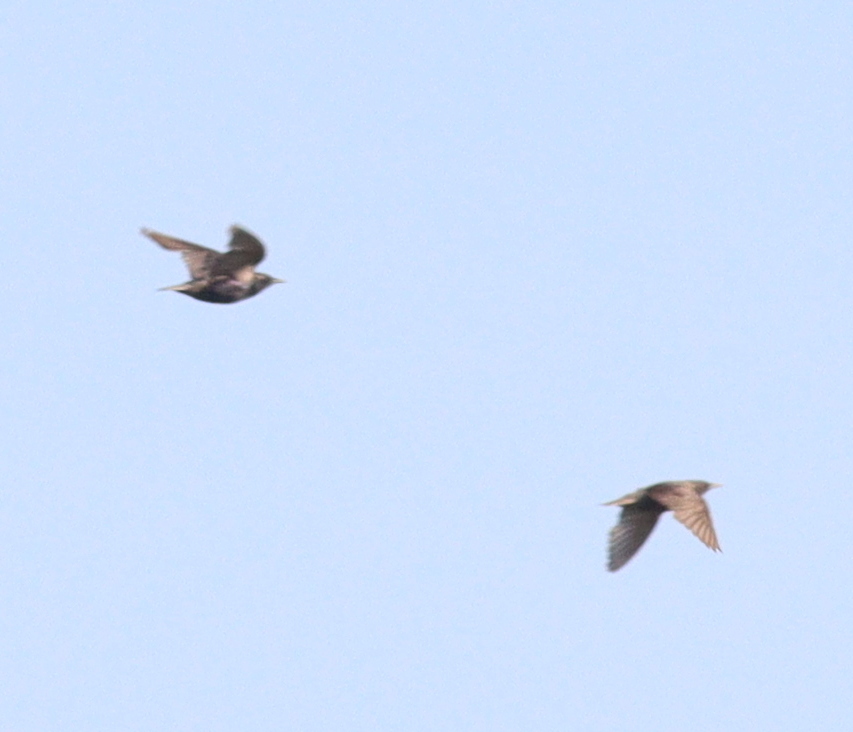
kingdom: Animalia
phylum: Chordata
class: Aves
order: Passeriformes
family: Sturnidae
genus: Sturnus
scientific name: Sturnus vulgaris
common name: Common starling
